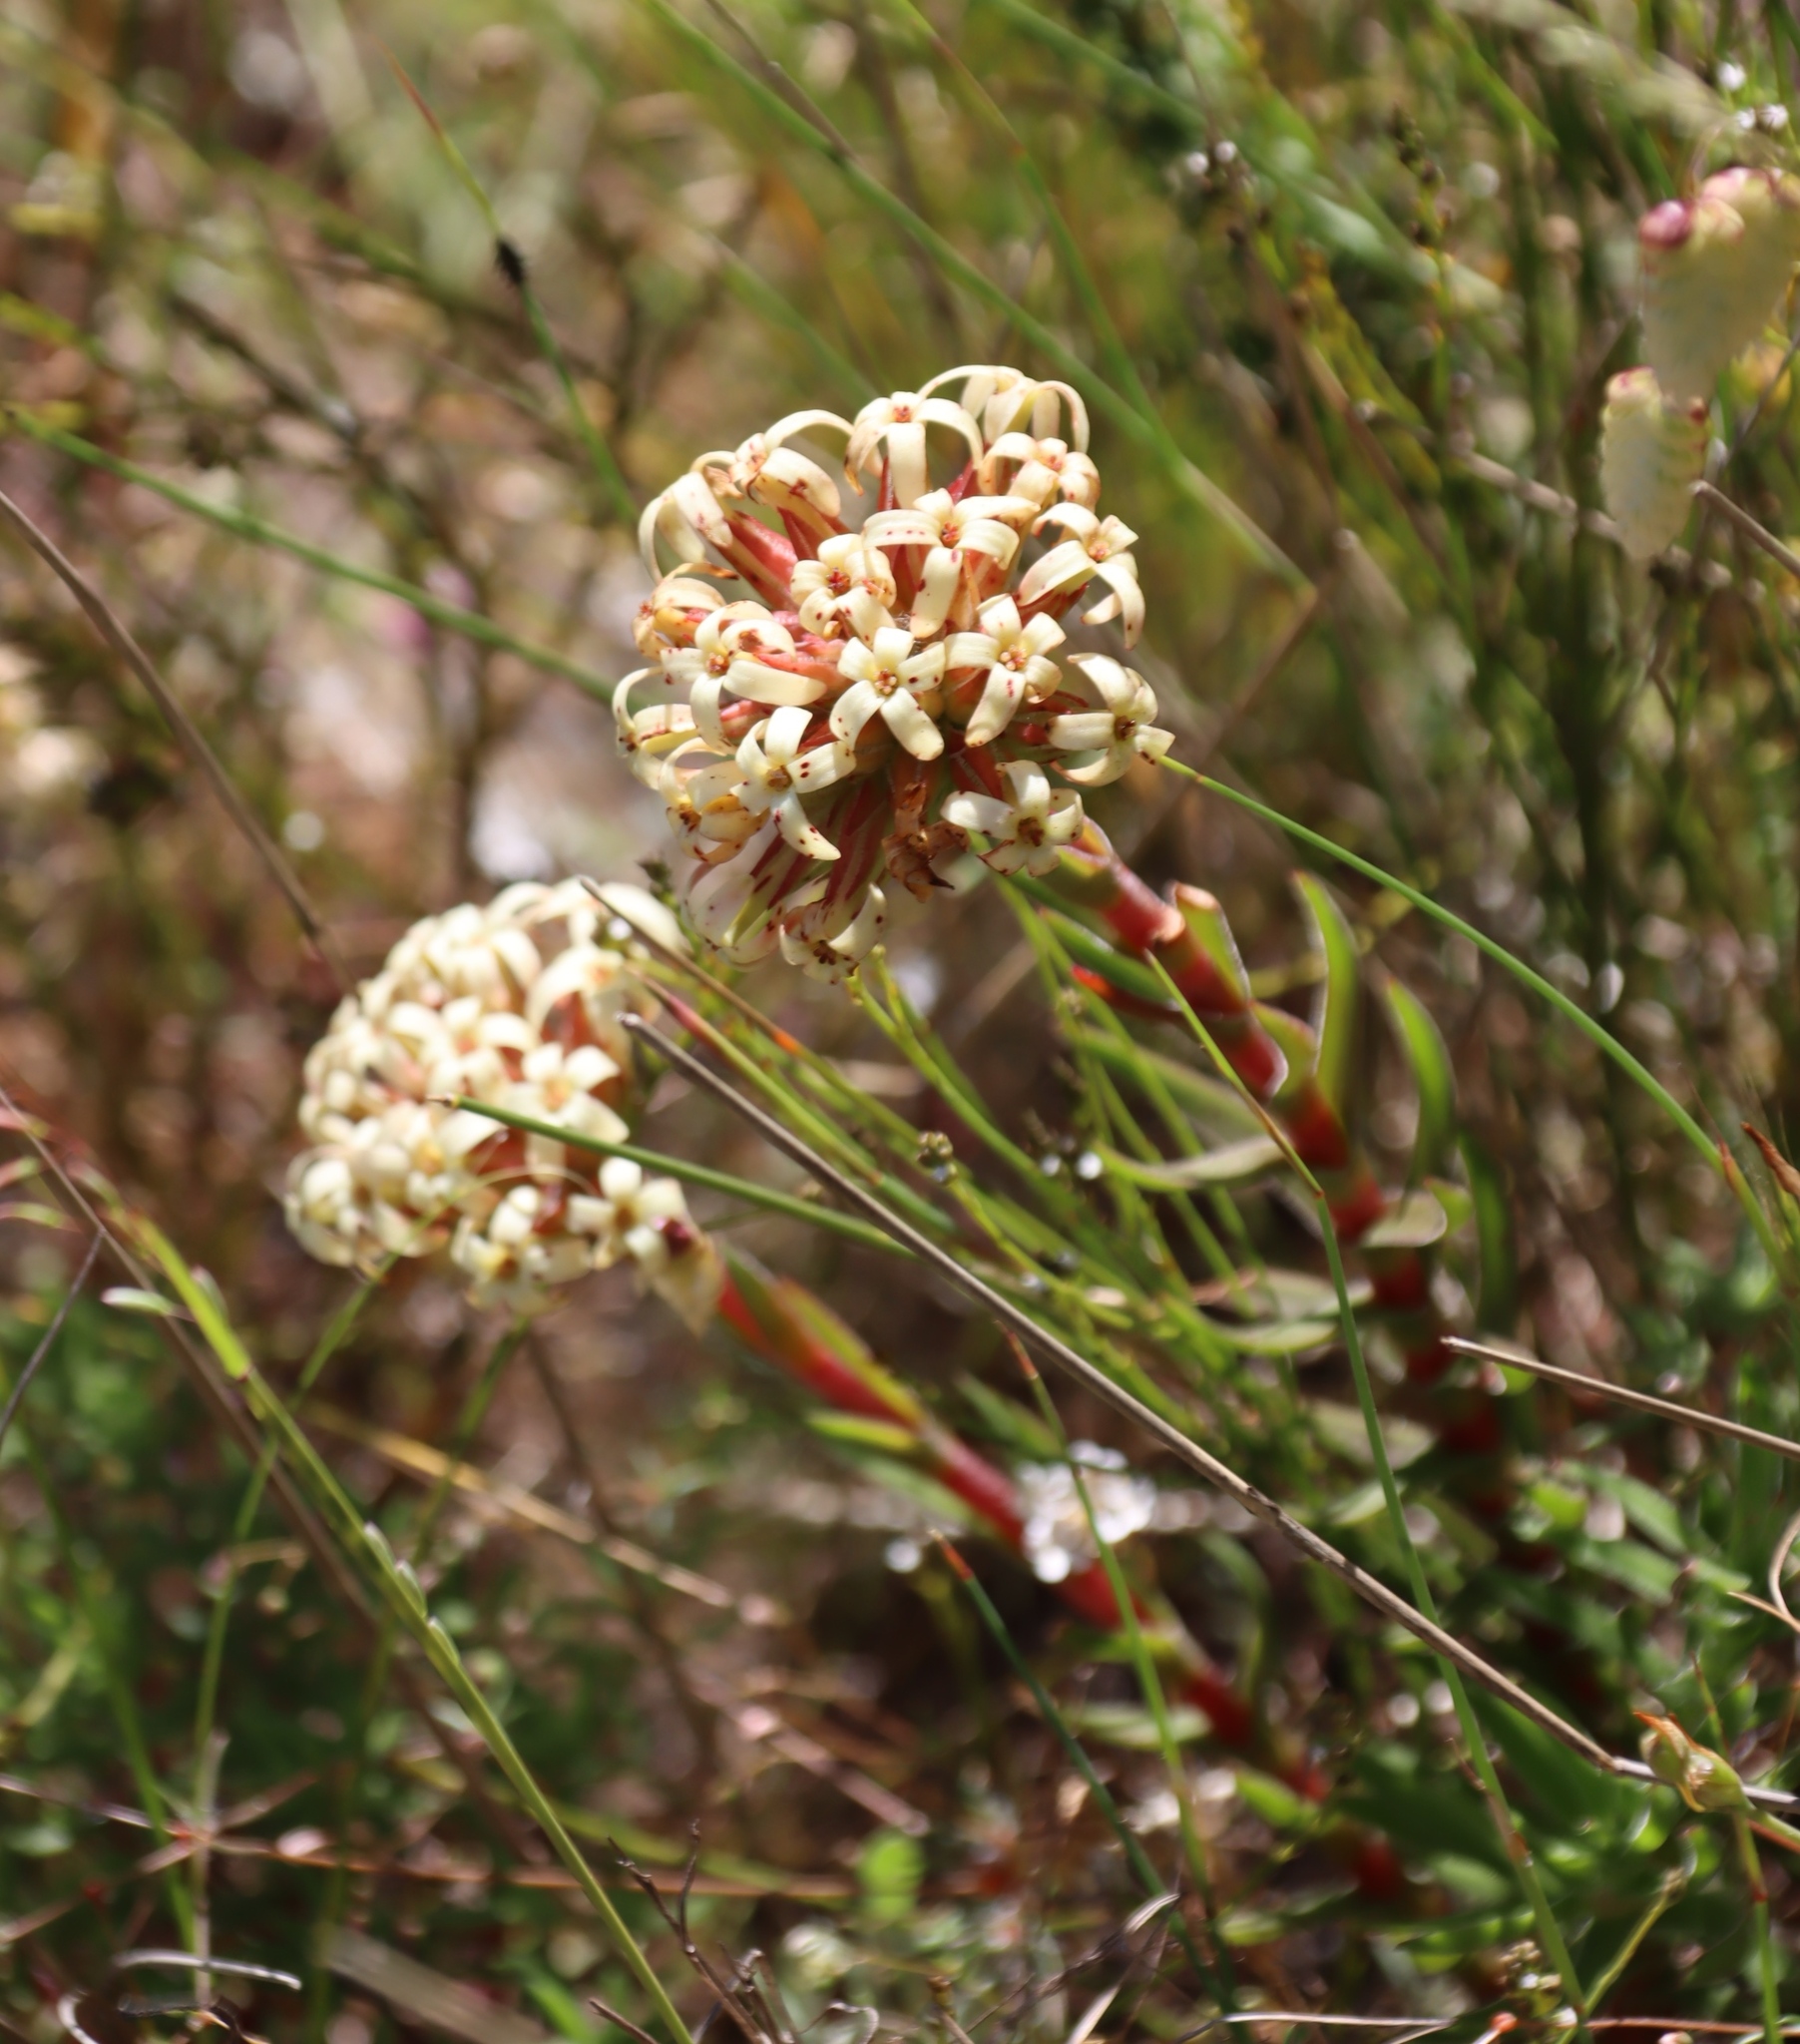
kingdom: Plantae
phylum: Tracheophyta
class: Magnoliopsida
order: Saxifragales
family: Crassulaceae
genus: Crassula
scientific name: Crassula fascicularis
